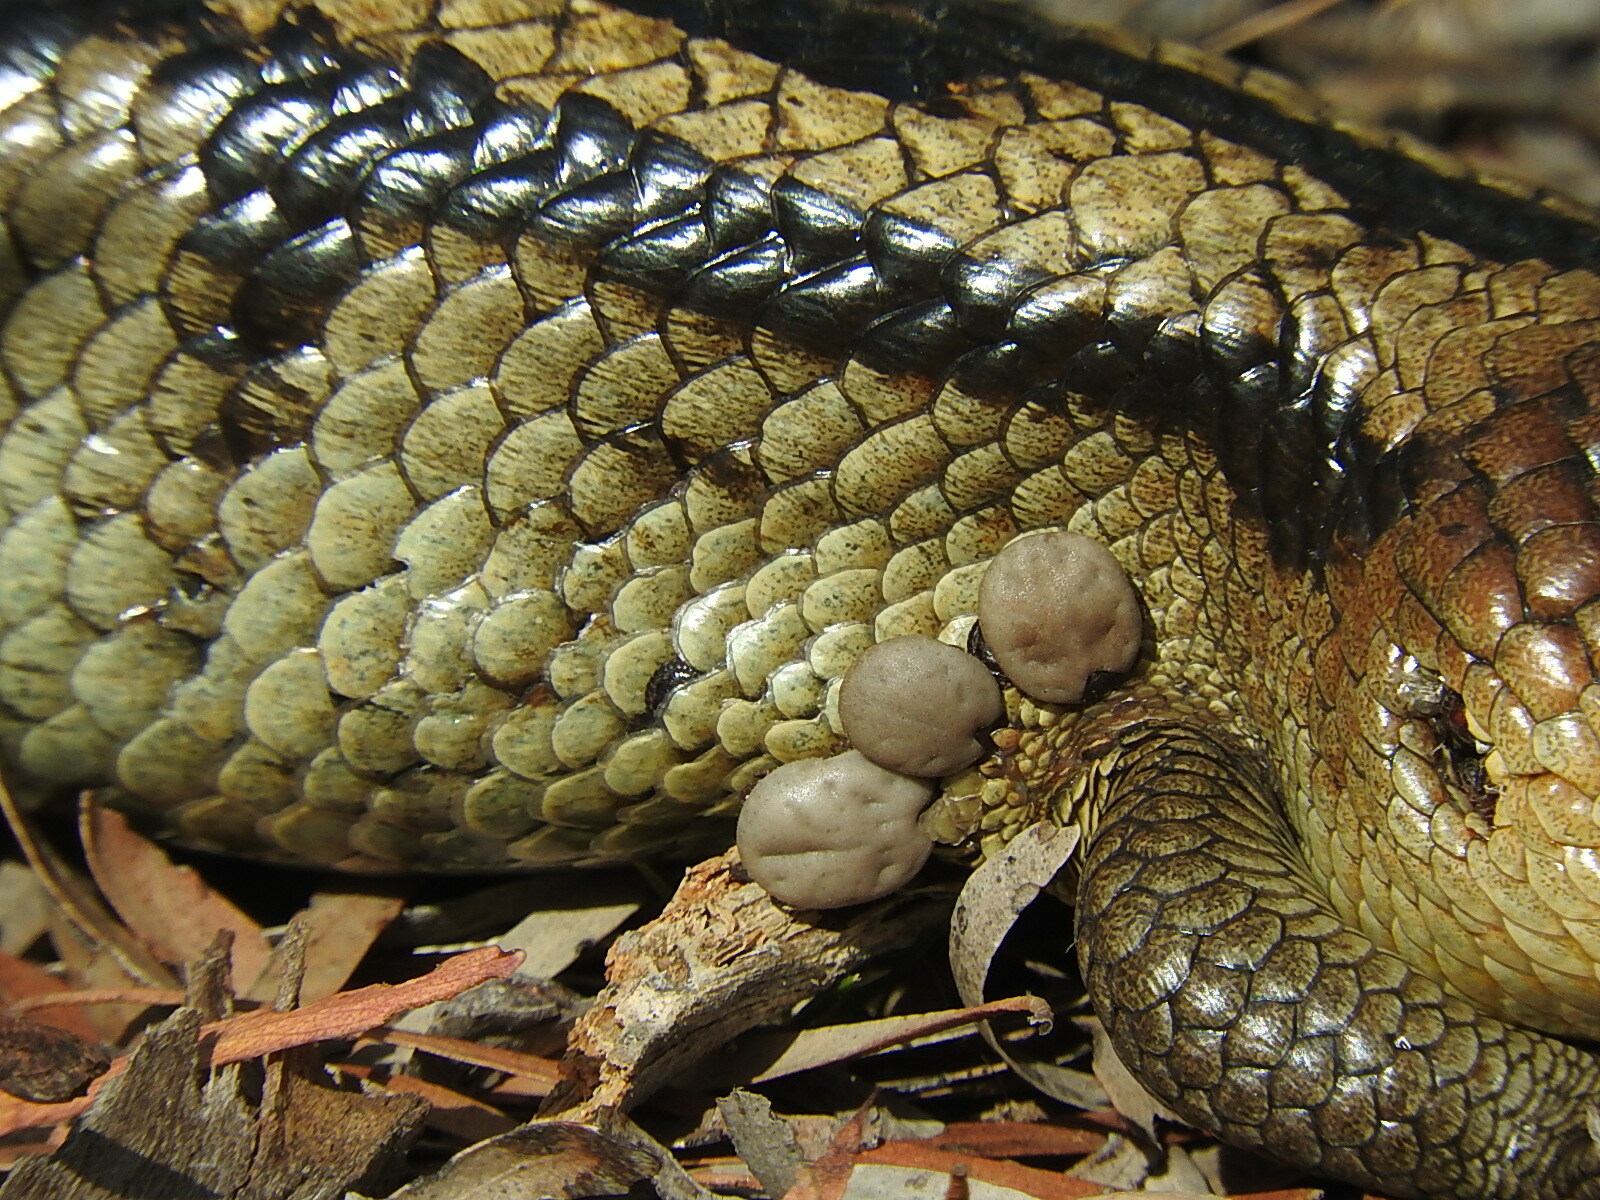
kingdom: Animalia
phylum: Arthropoda
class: Arachnida
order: Ixodida
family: Ixodidae
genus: Bothriocroton
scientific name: Bothriocroton hydrosauri
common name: Southern reptile tick
